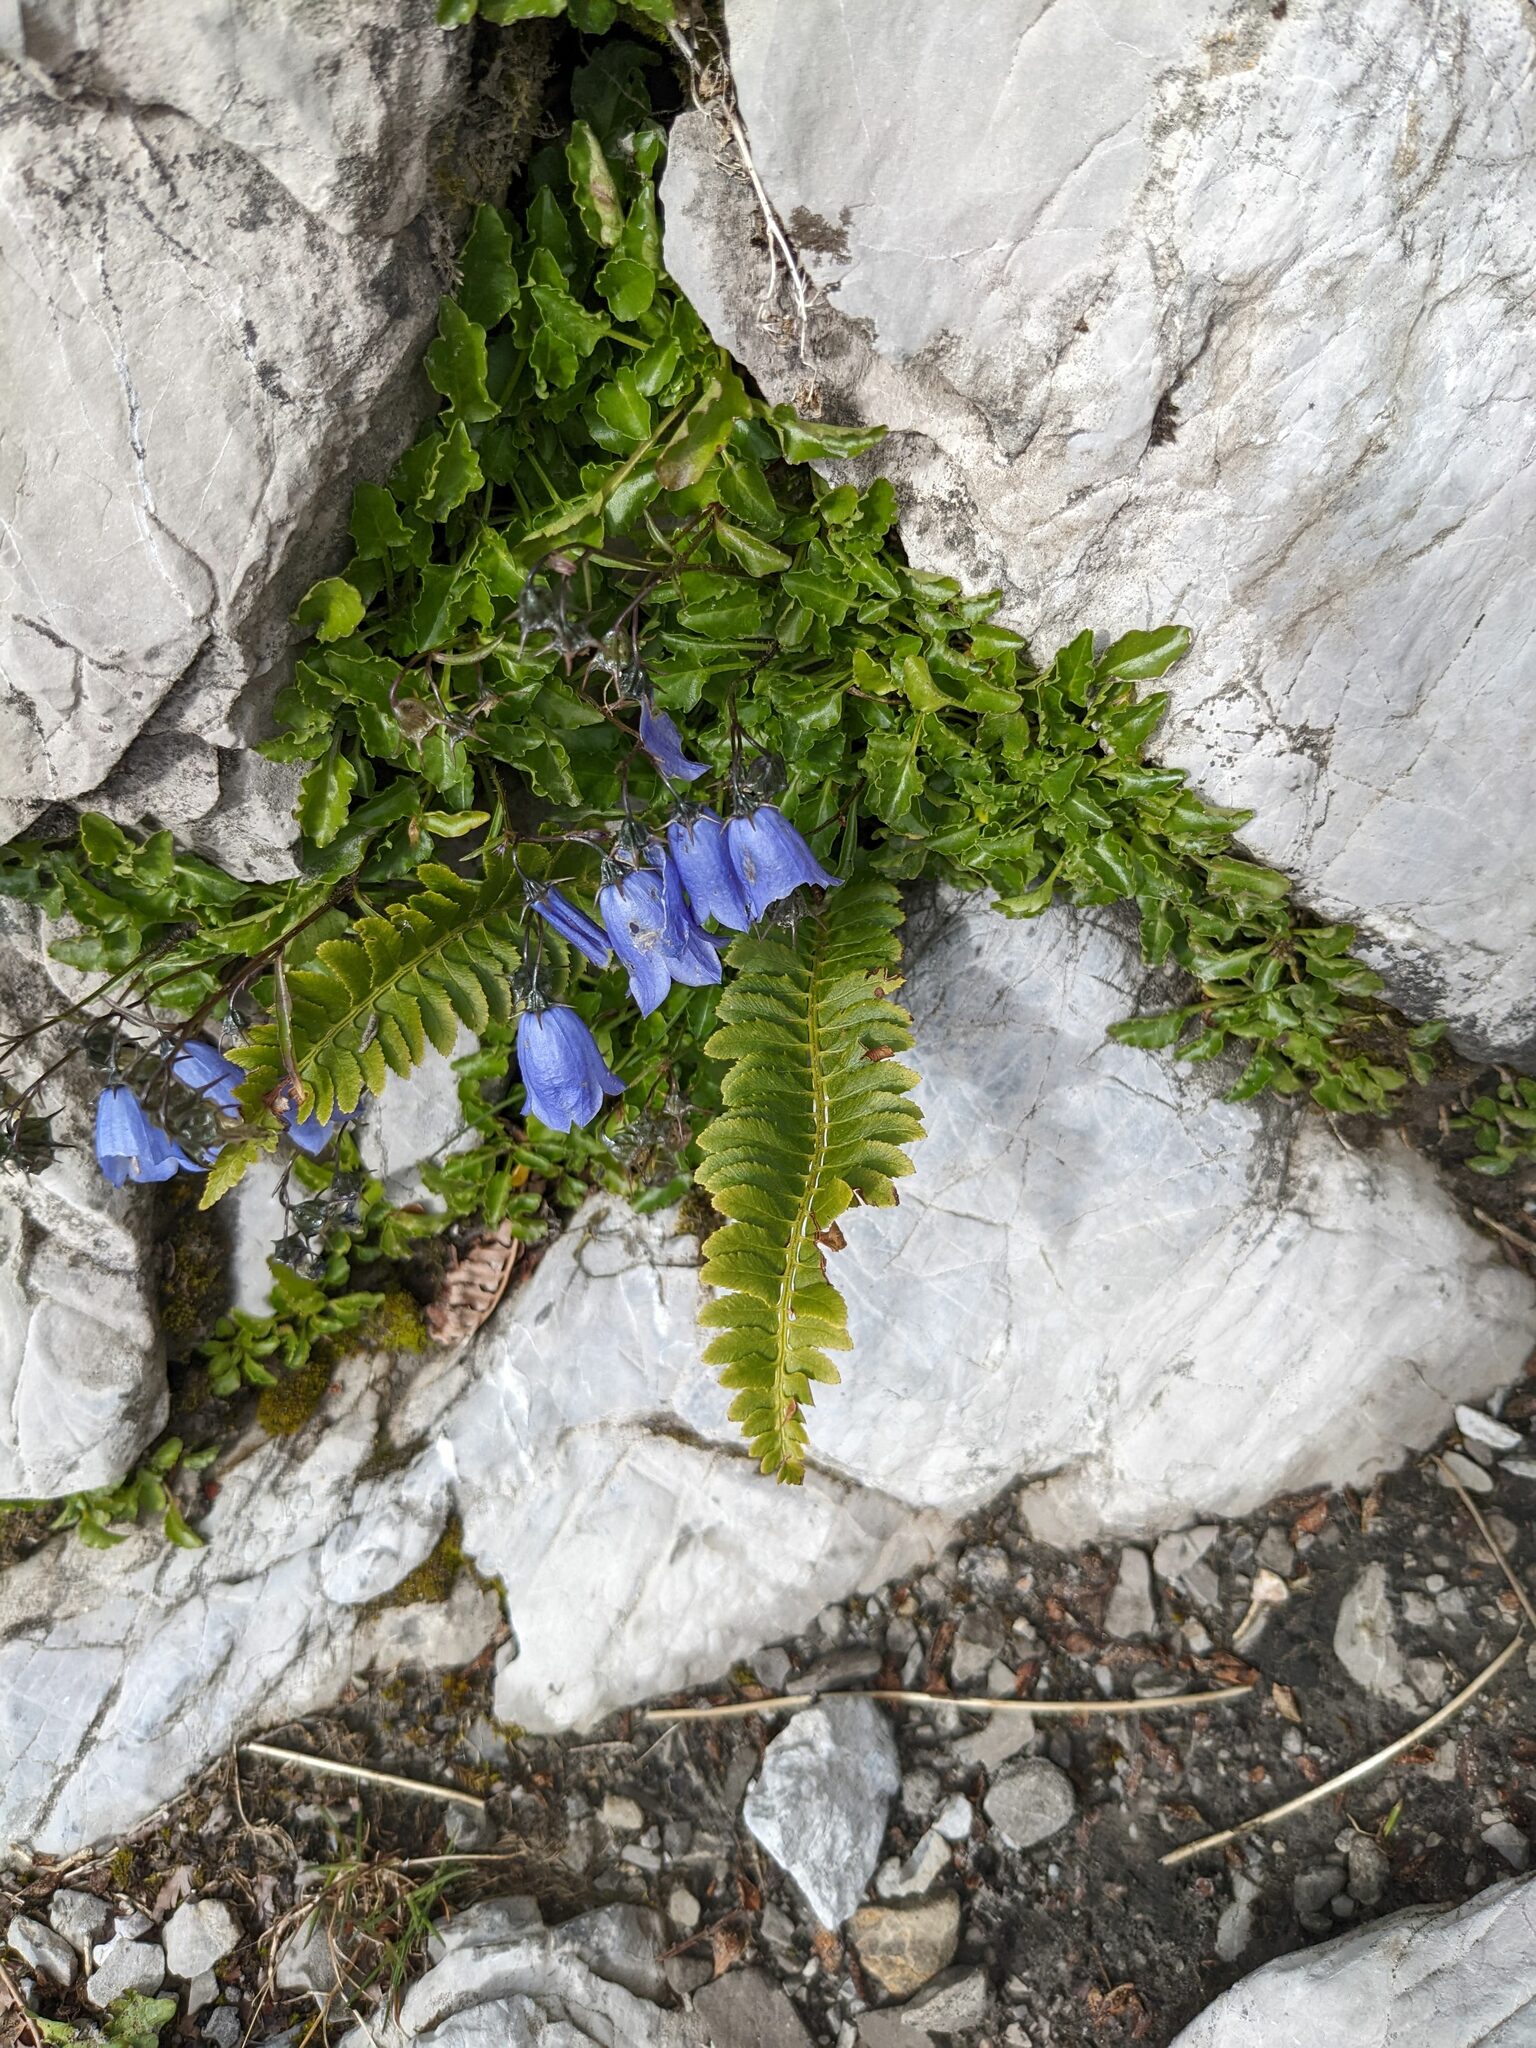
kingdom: Plantae
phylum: Tracheophyta
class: Polypodiopsida
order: Polypodiales
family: Dryopteridaceae
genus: Polystichum
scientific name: Polystichum lonchitis
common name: Holly fern
